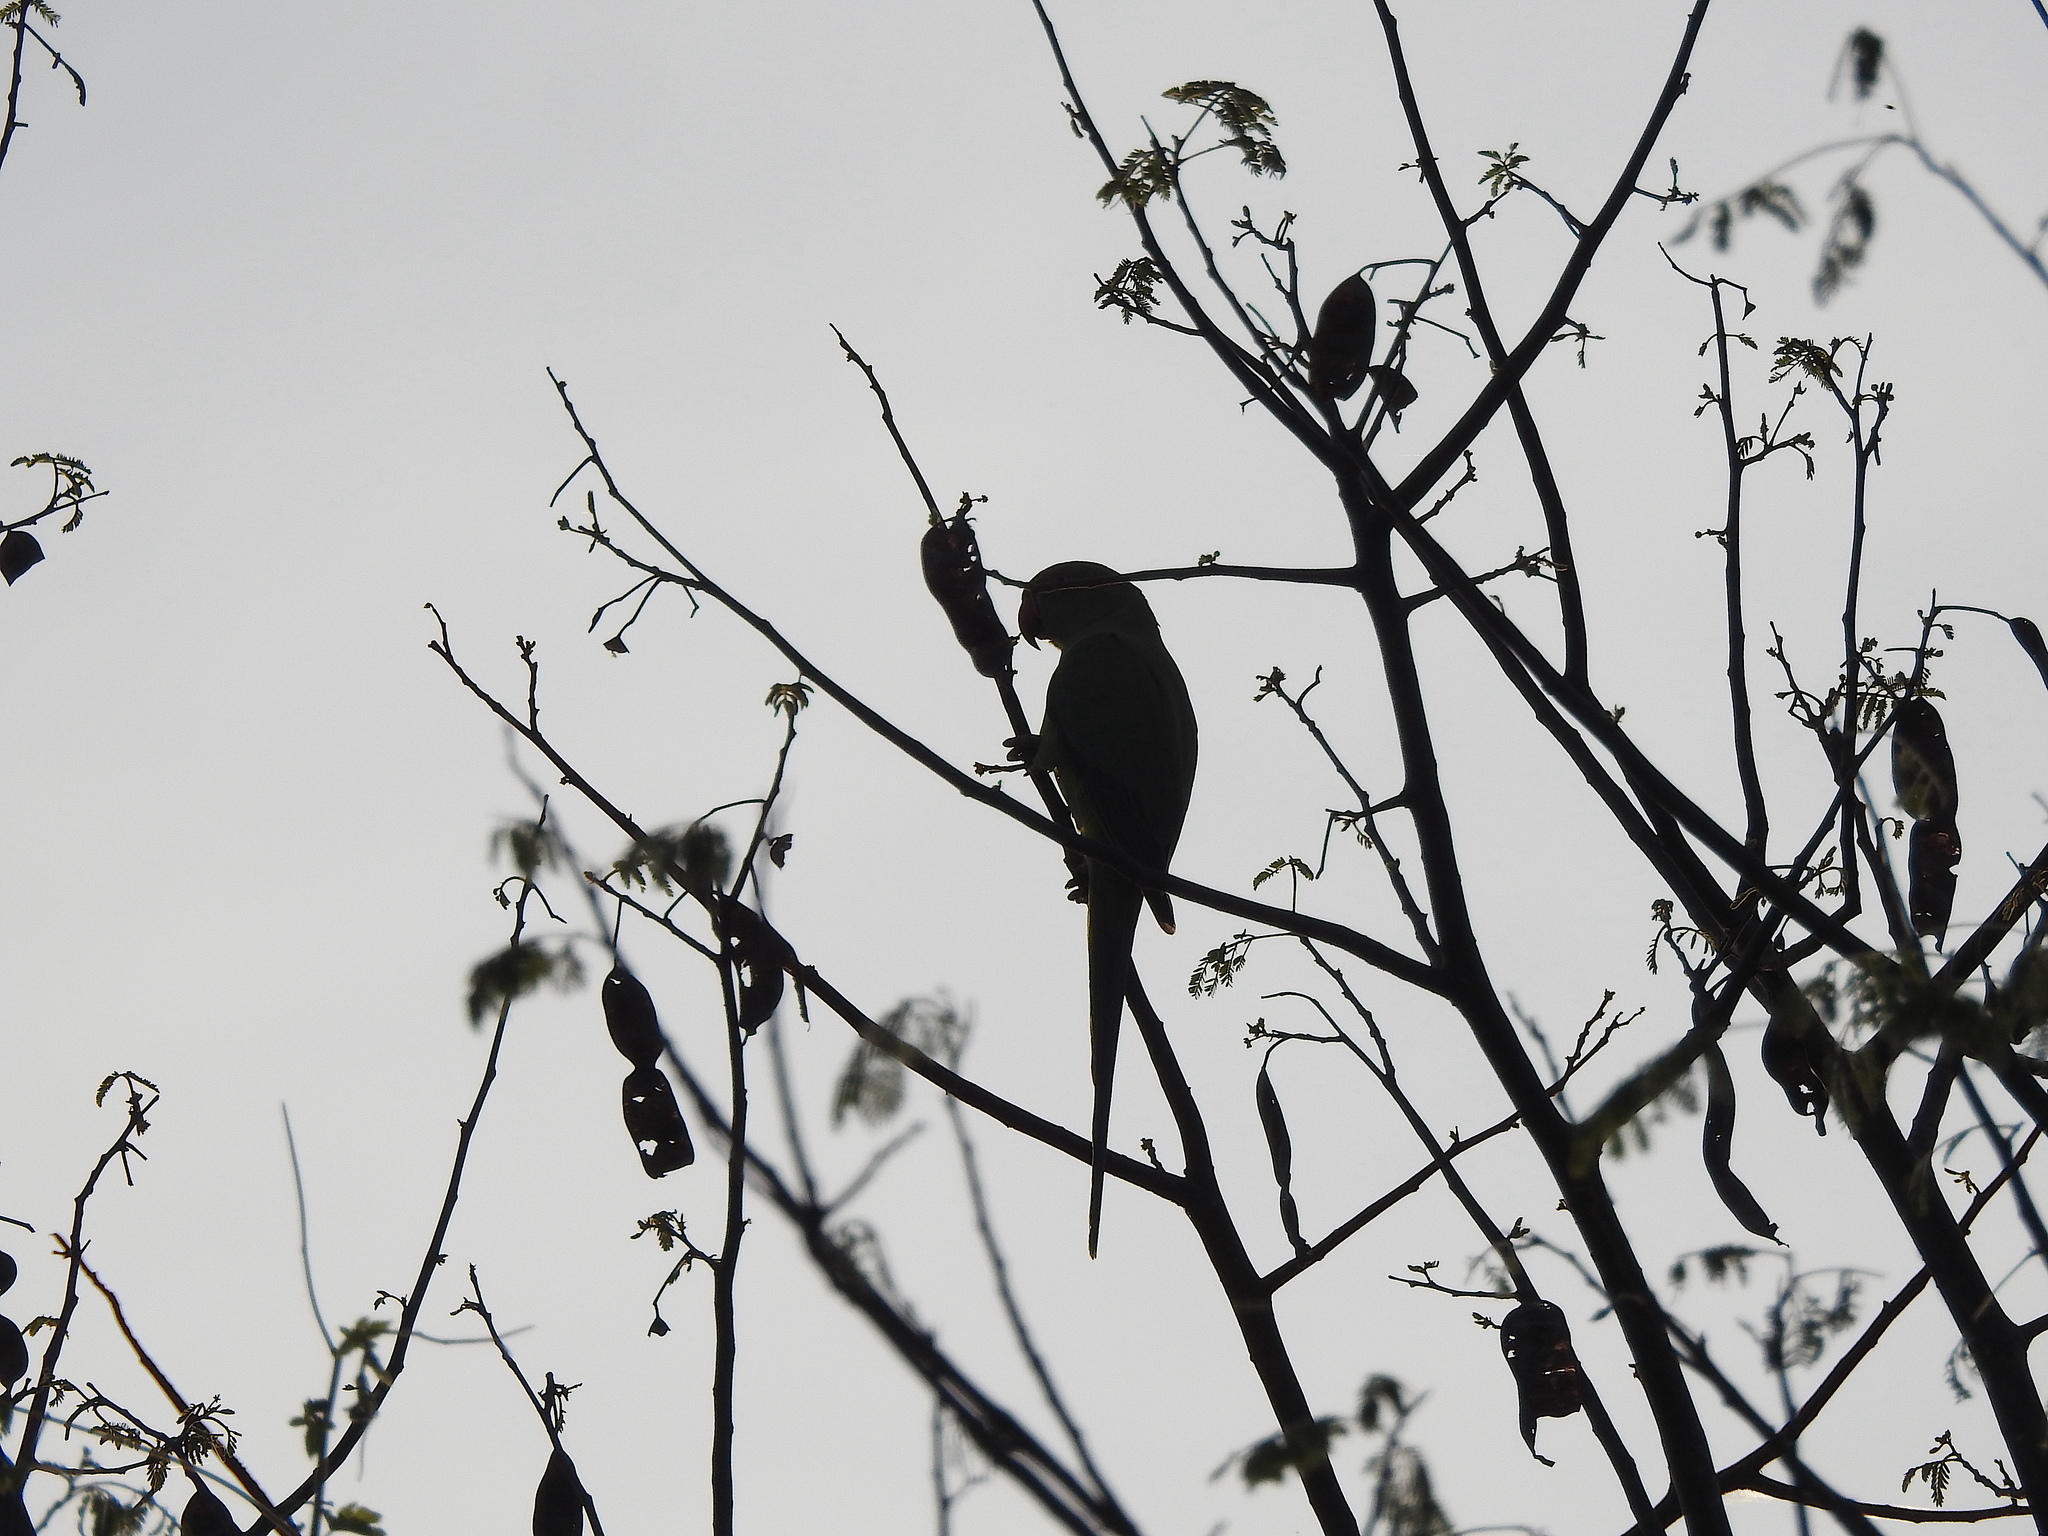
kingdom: Animalia
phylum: Chordata
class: Aves
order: Psittaciformes
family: Psittacidae
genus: Psittacula
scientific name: Psittacula krameri
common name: Rose-ringed parakeet
